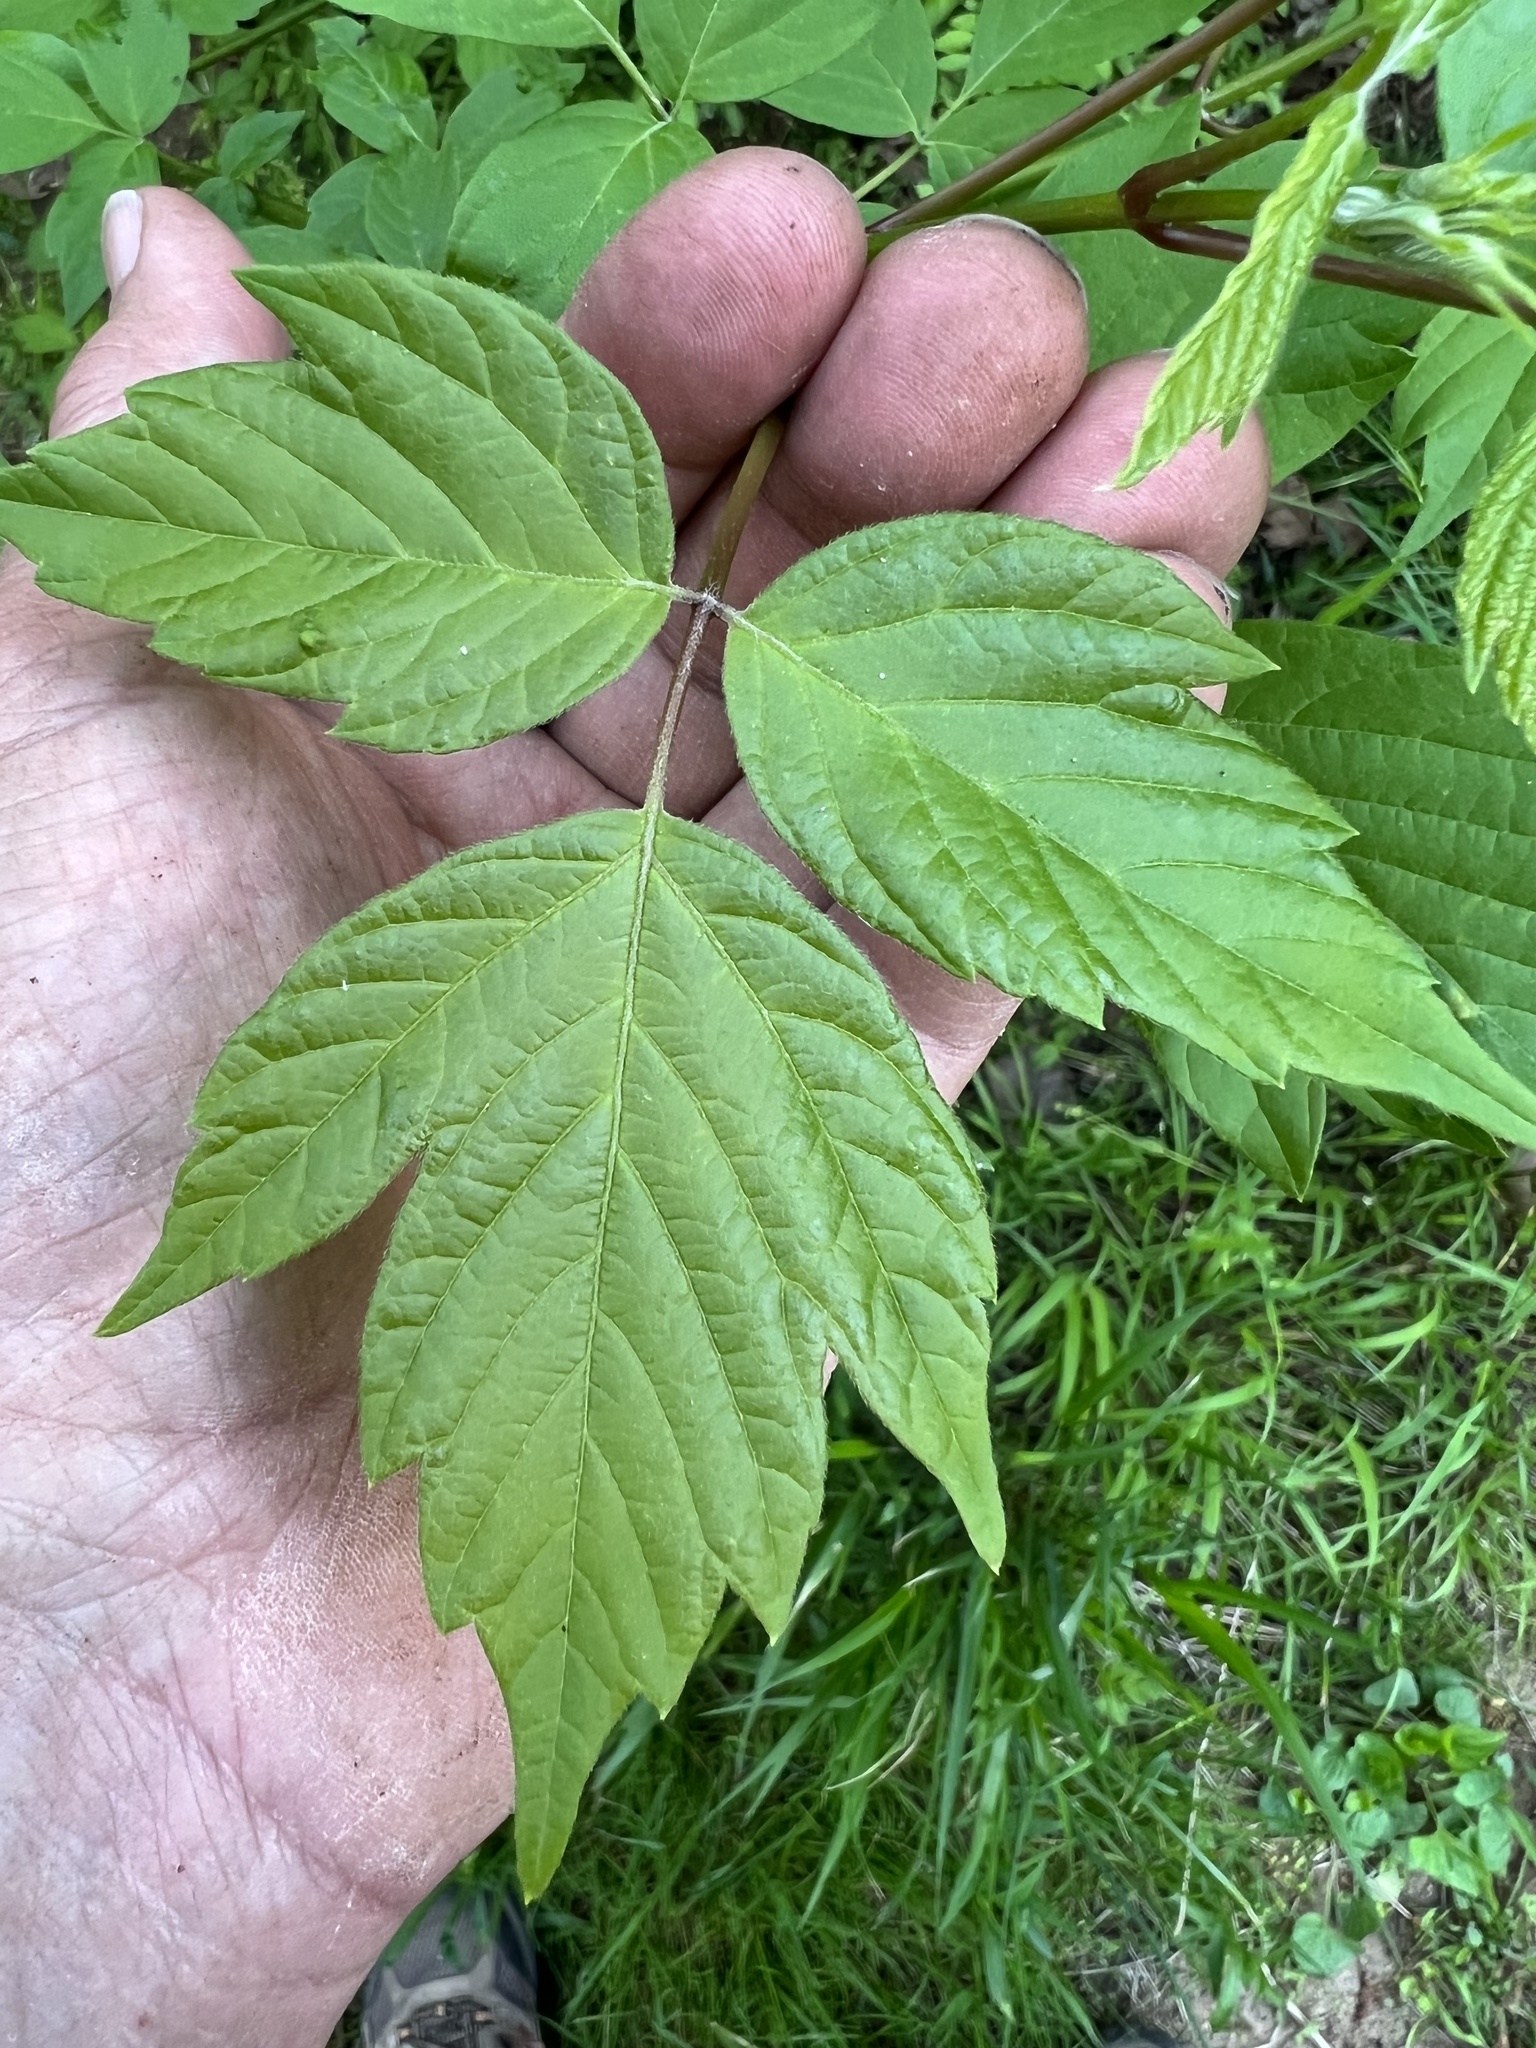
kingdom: Plantae
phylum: Tracheophyta
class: Magnoliopsida
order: Sapindales
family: Sapindaceae
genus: Acer
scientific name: Acer negundo
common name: Ashleaf maple
